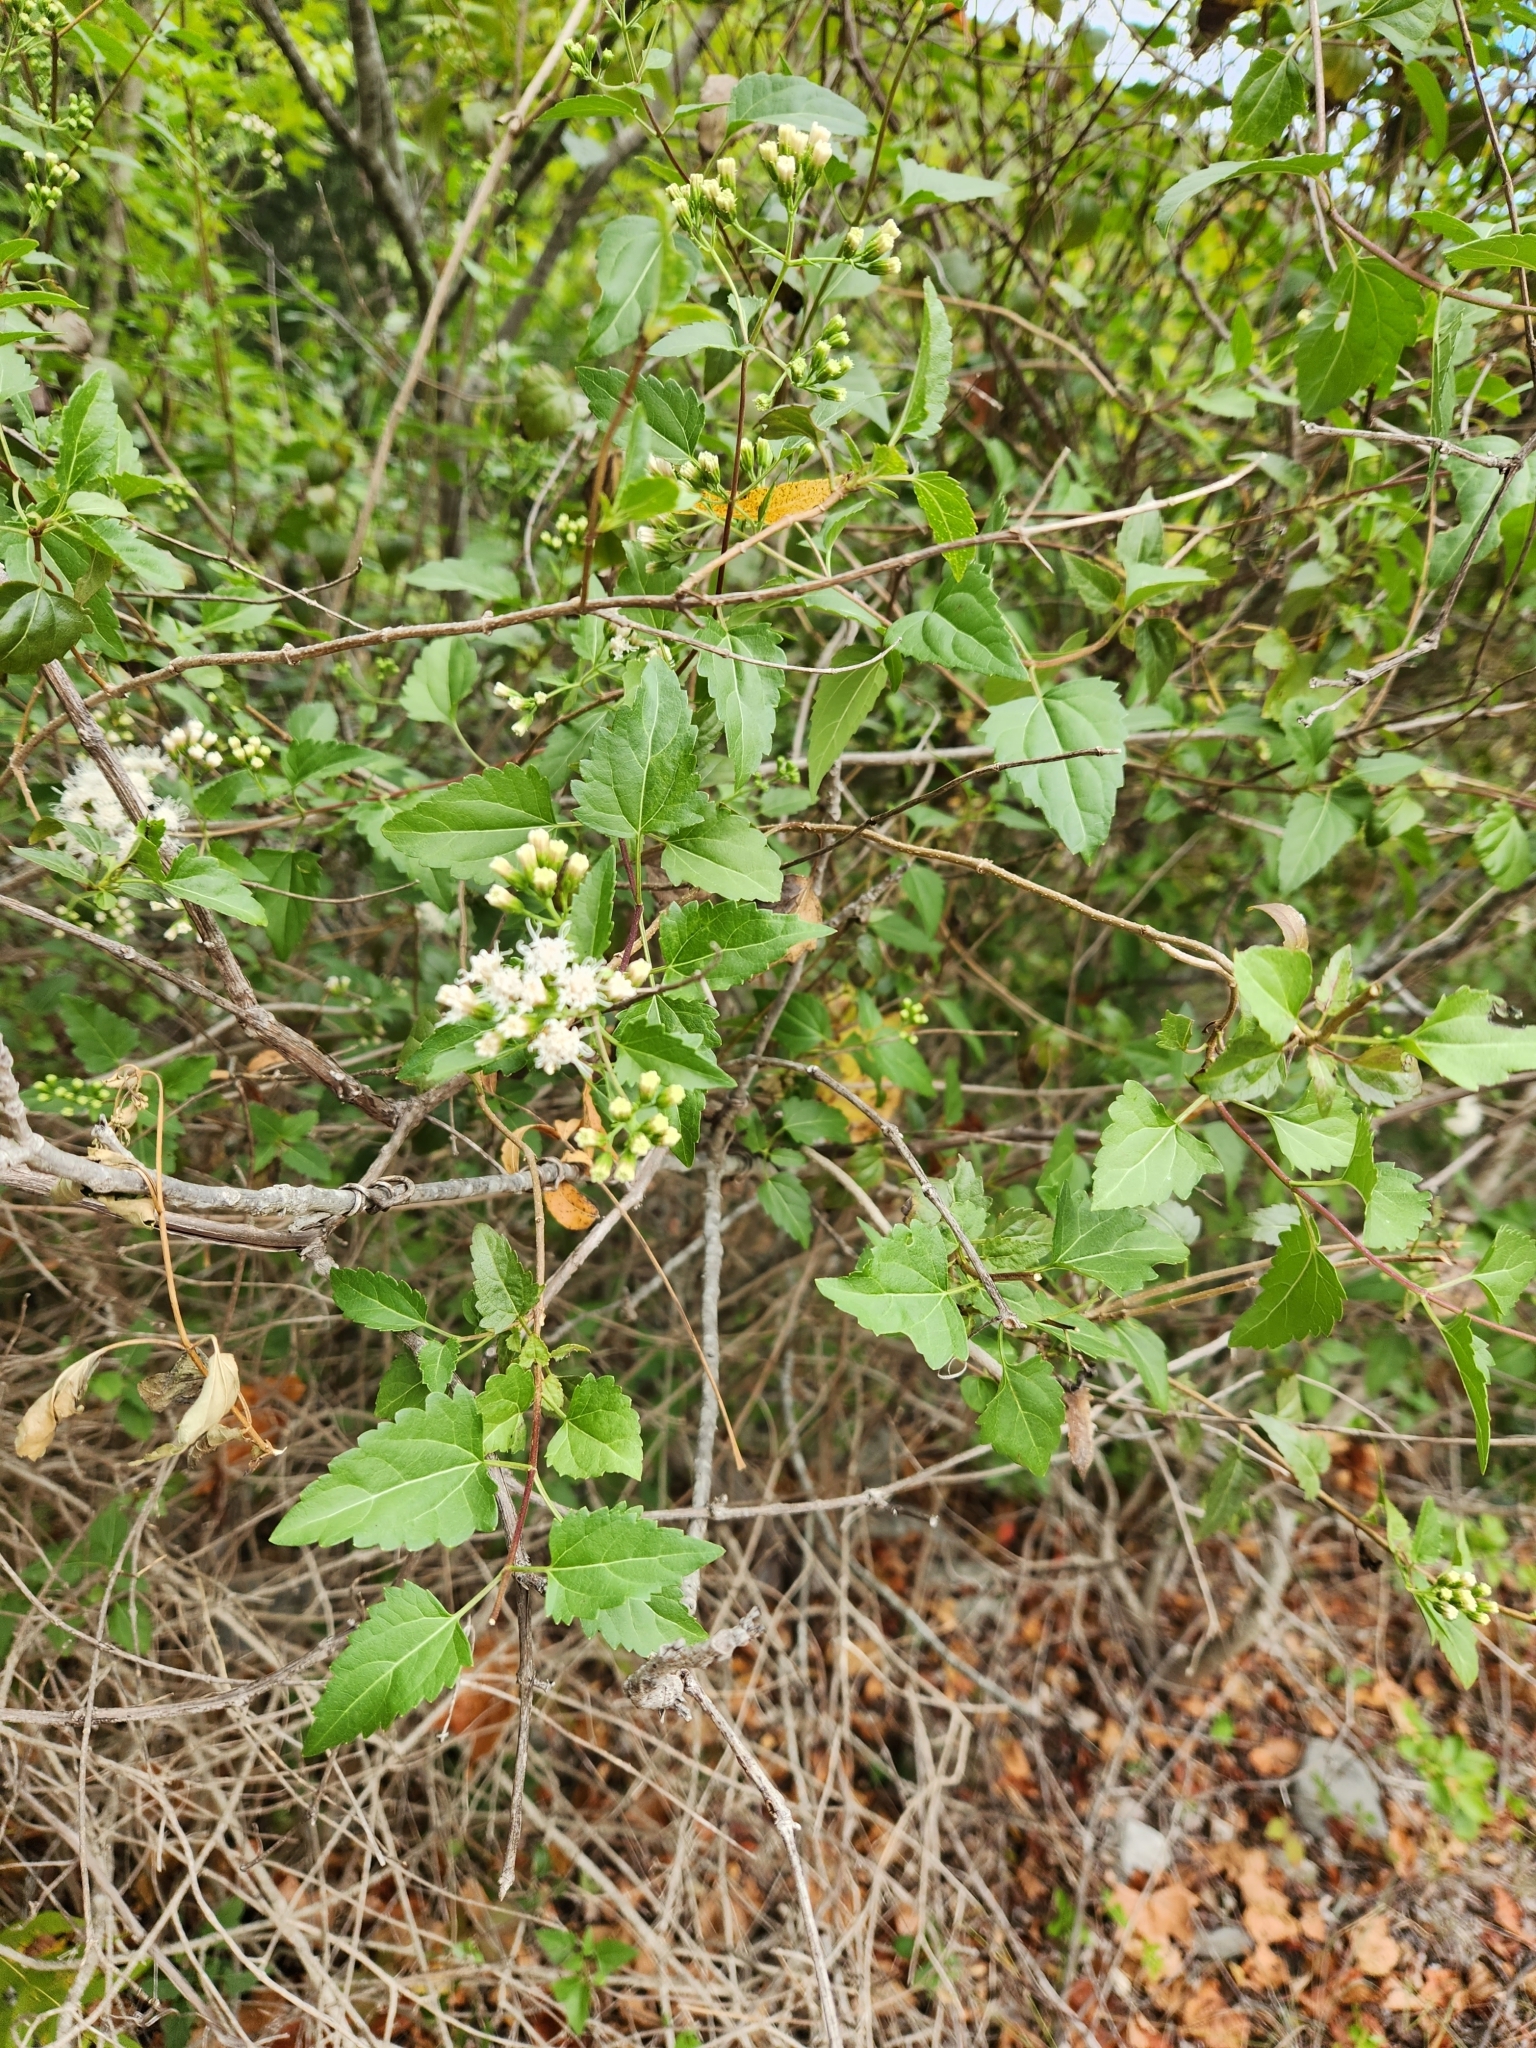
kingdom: Plantae
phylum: Tracheophyta
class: Magnoliopsida
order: Asterales
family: Asteraceae
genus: Ageratina
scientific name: Ageratina havanensis
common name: Havana snakeroot
